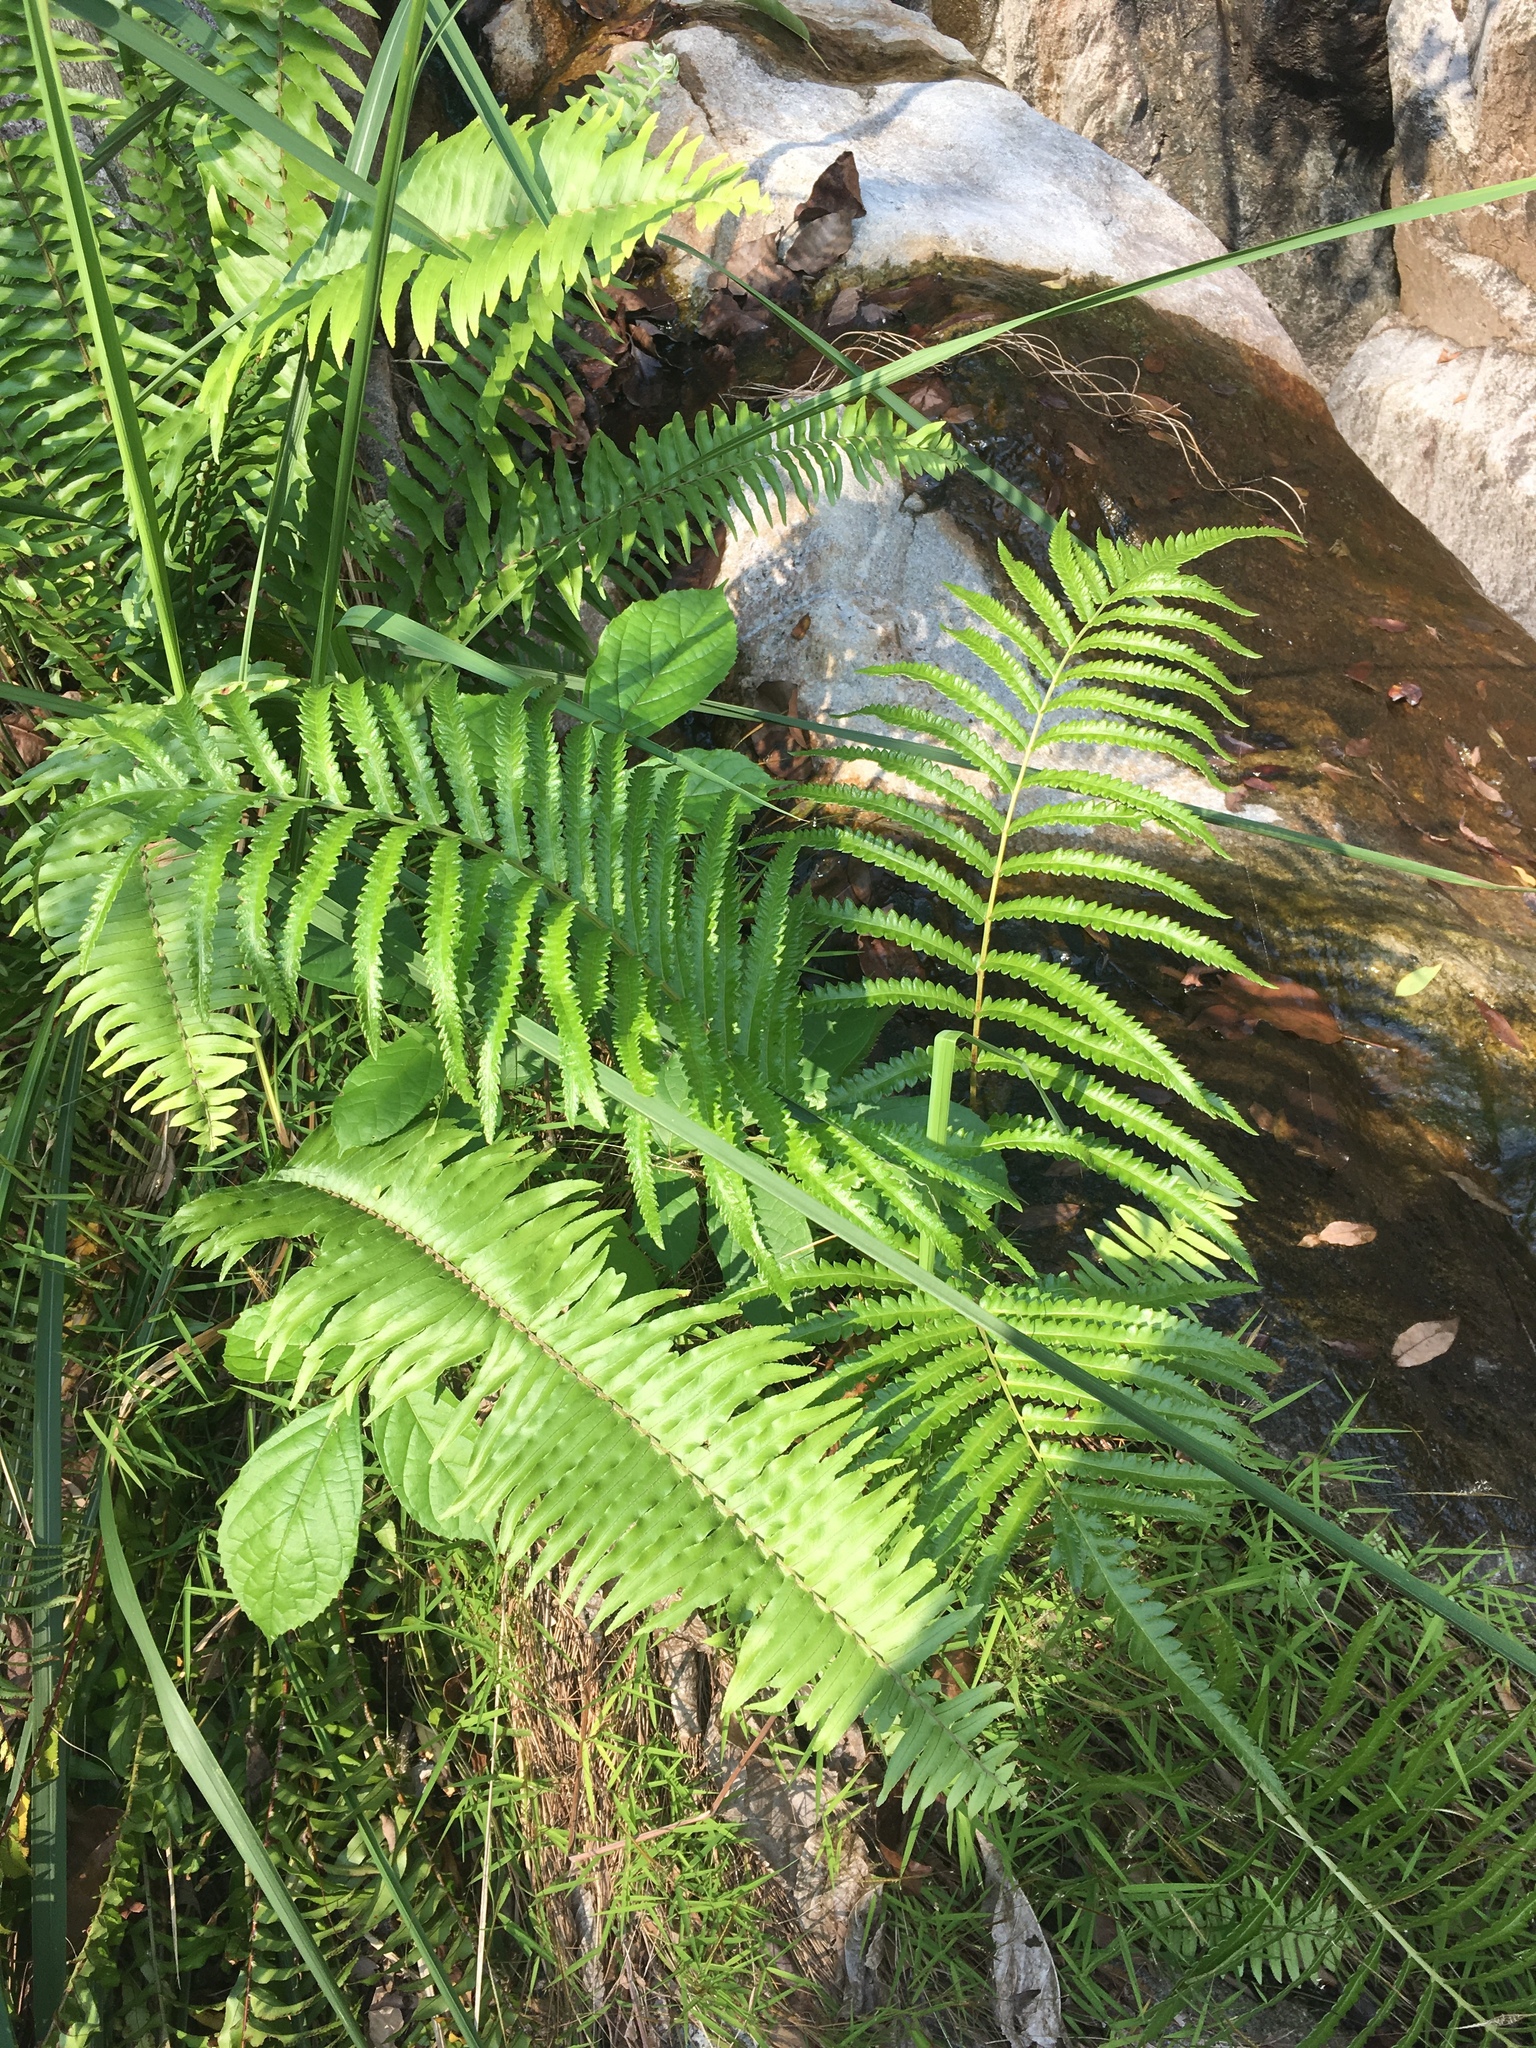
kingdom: Plantae
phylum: Tracheophyta
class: Polypodiopsida
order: Polypodiales
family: Thelypteridaceae
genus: Cyclosorus
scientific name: Cyclosorus interruptus
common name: Neke fern
